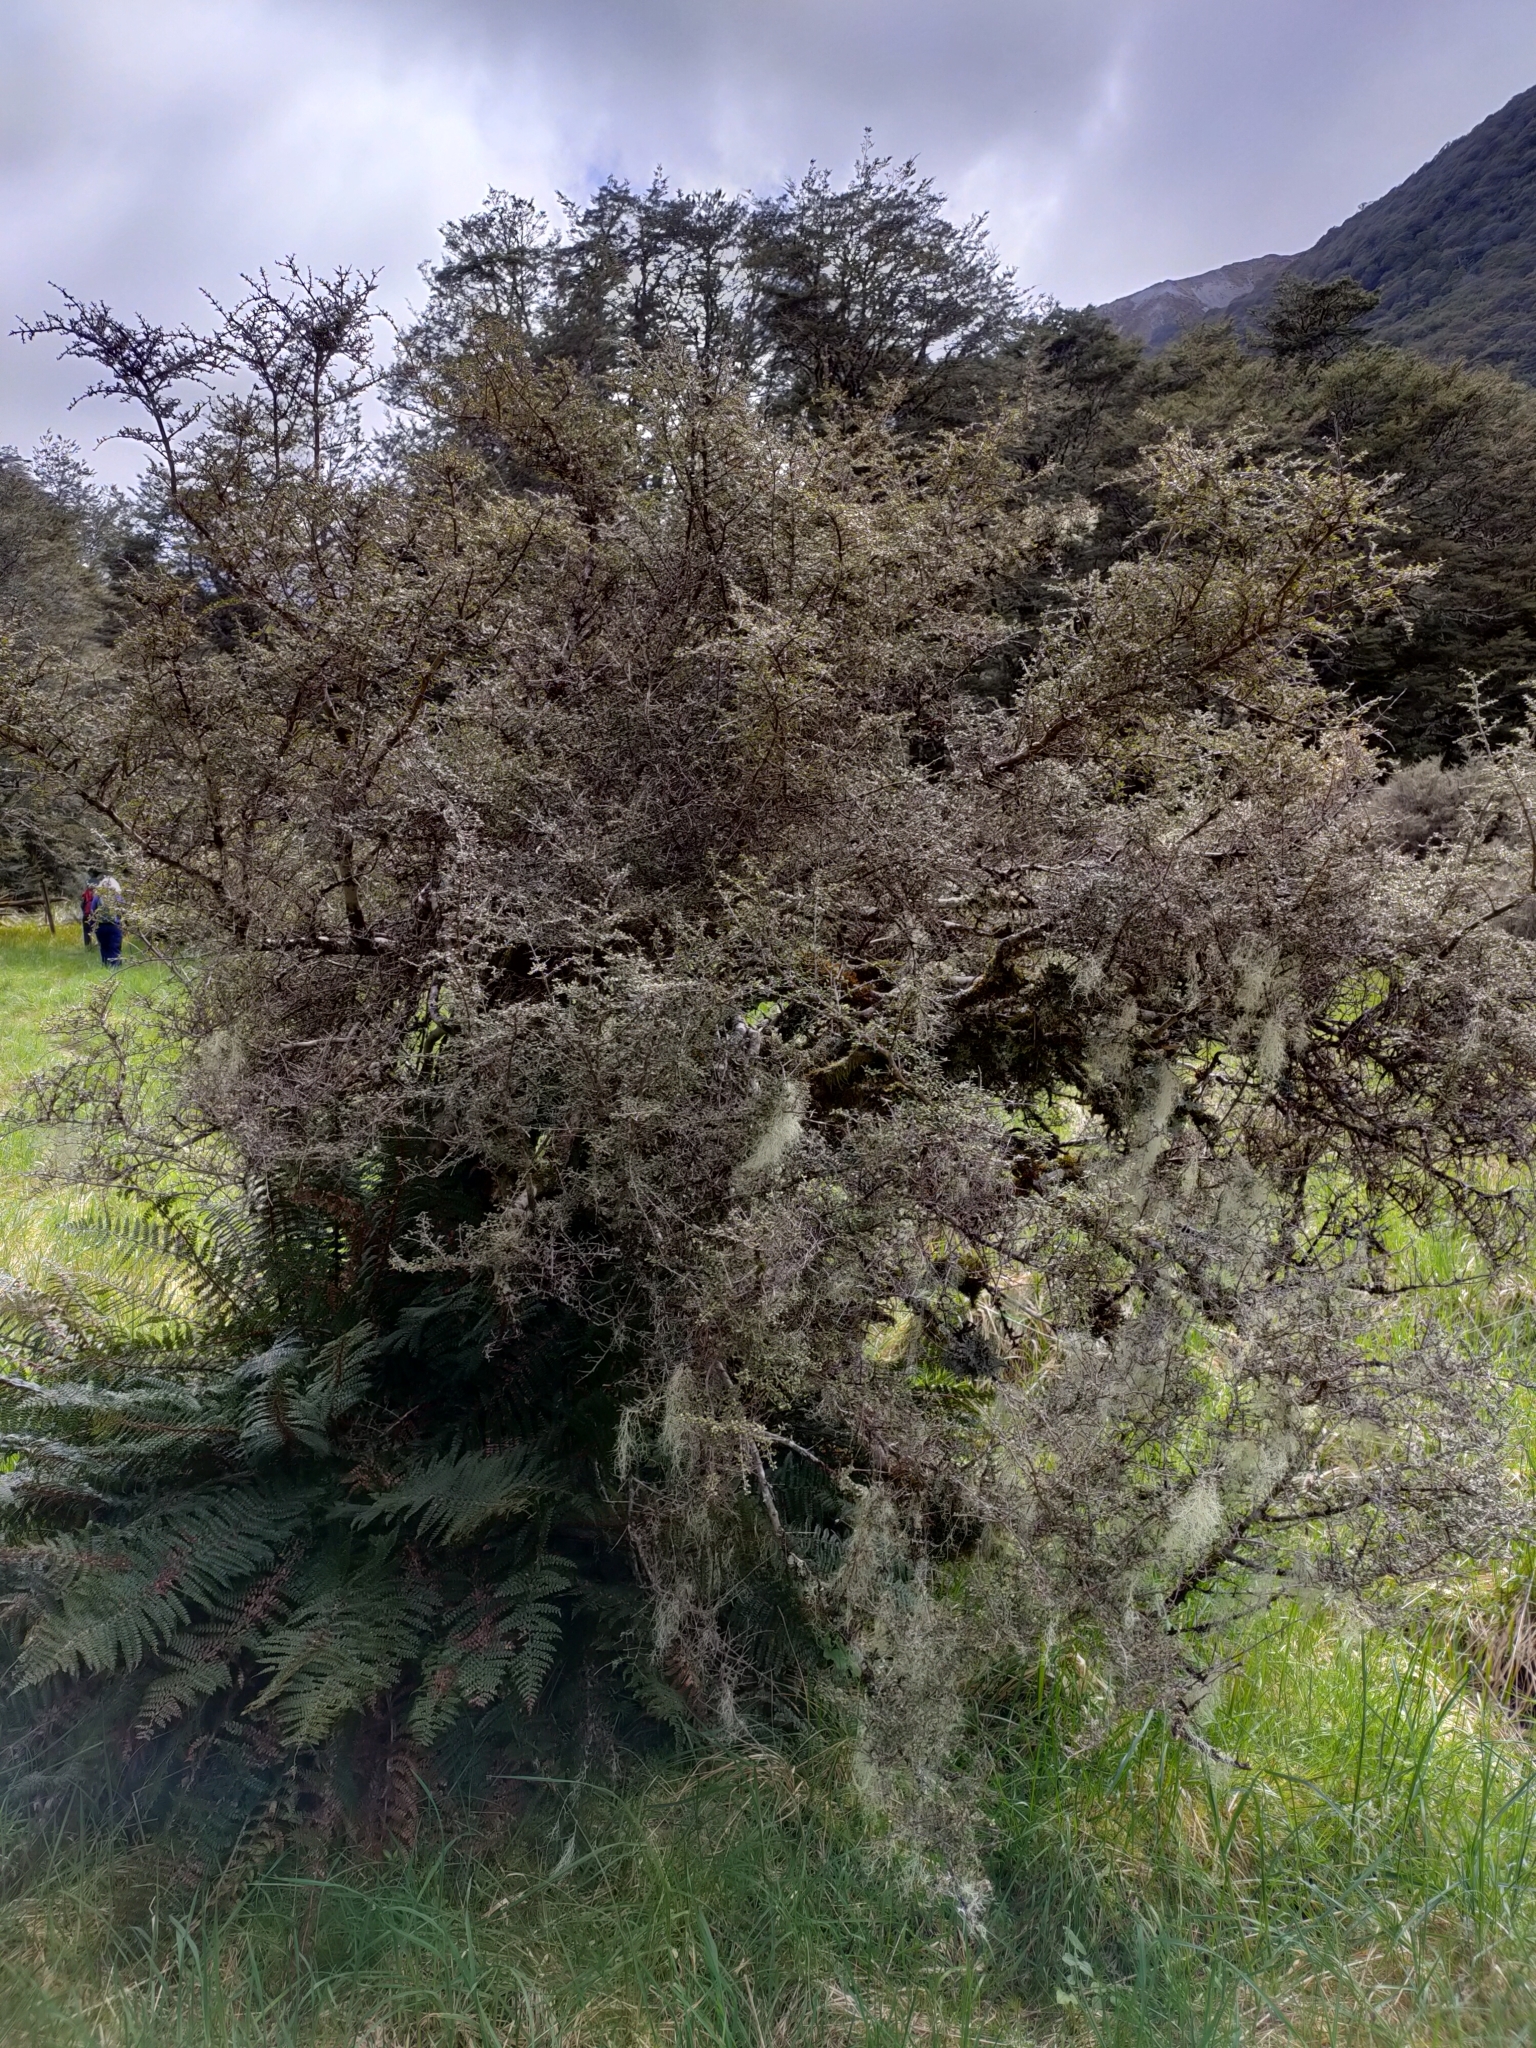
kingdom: Plantae
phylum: Tracheophyta
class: Magnoliopsida
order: Gentianales
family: Rubiaceae
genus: Coprosma
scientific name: Coprosma dumosa
